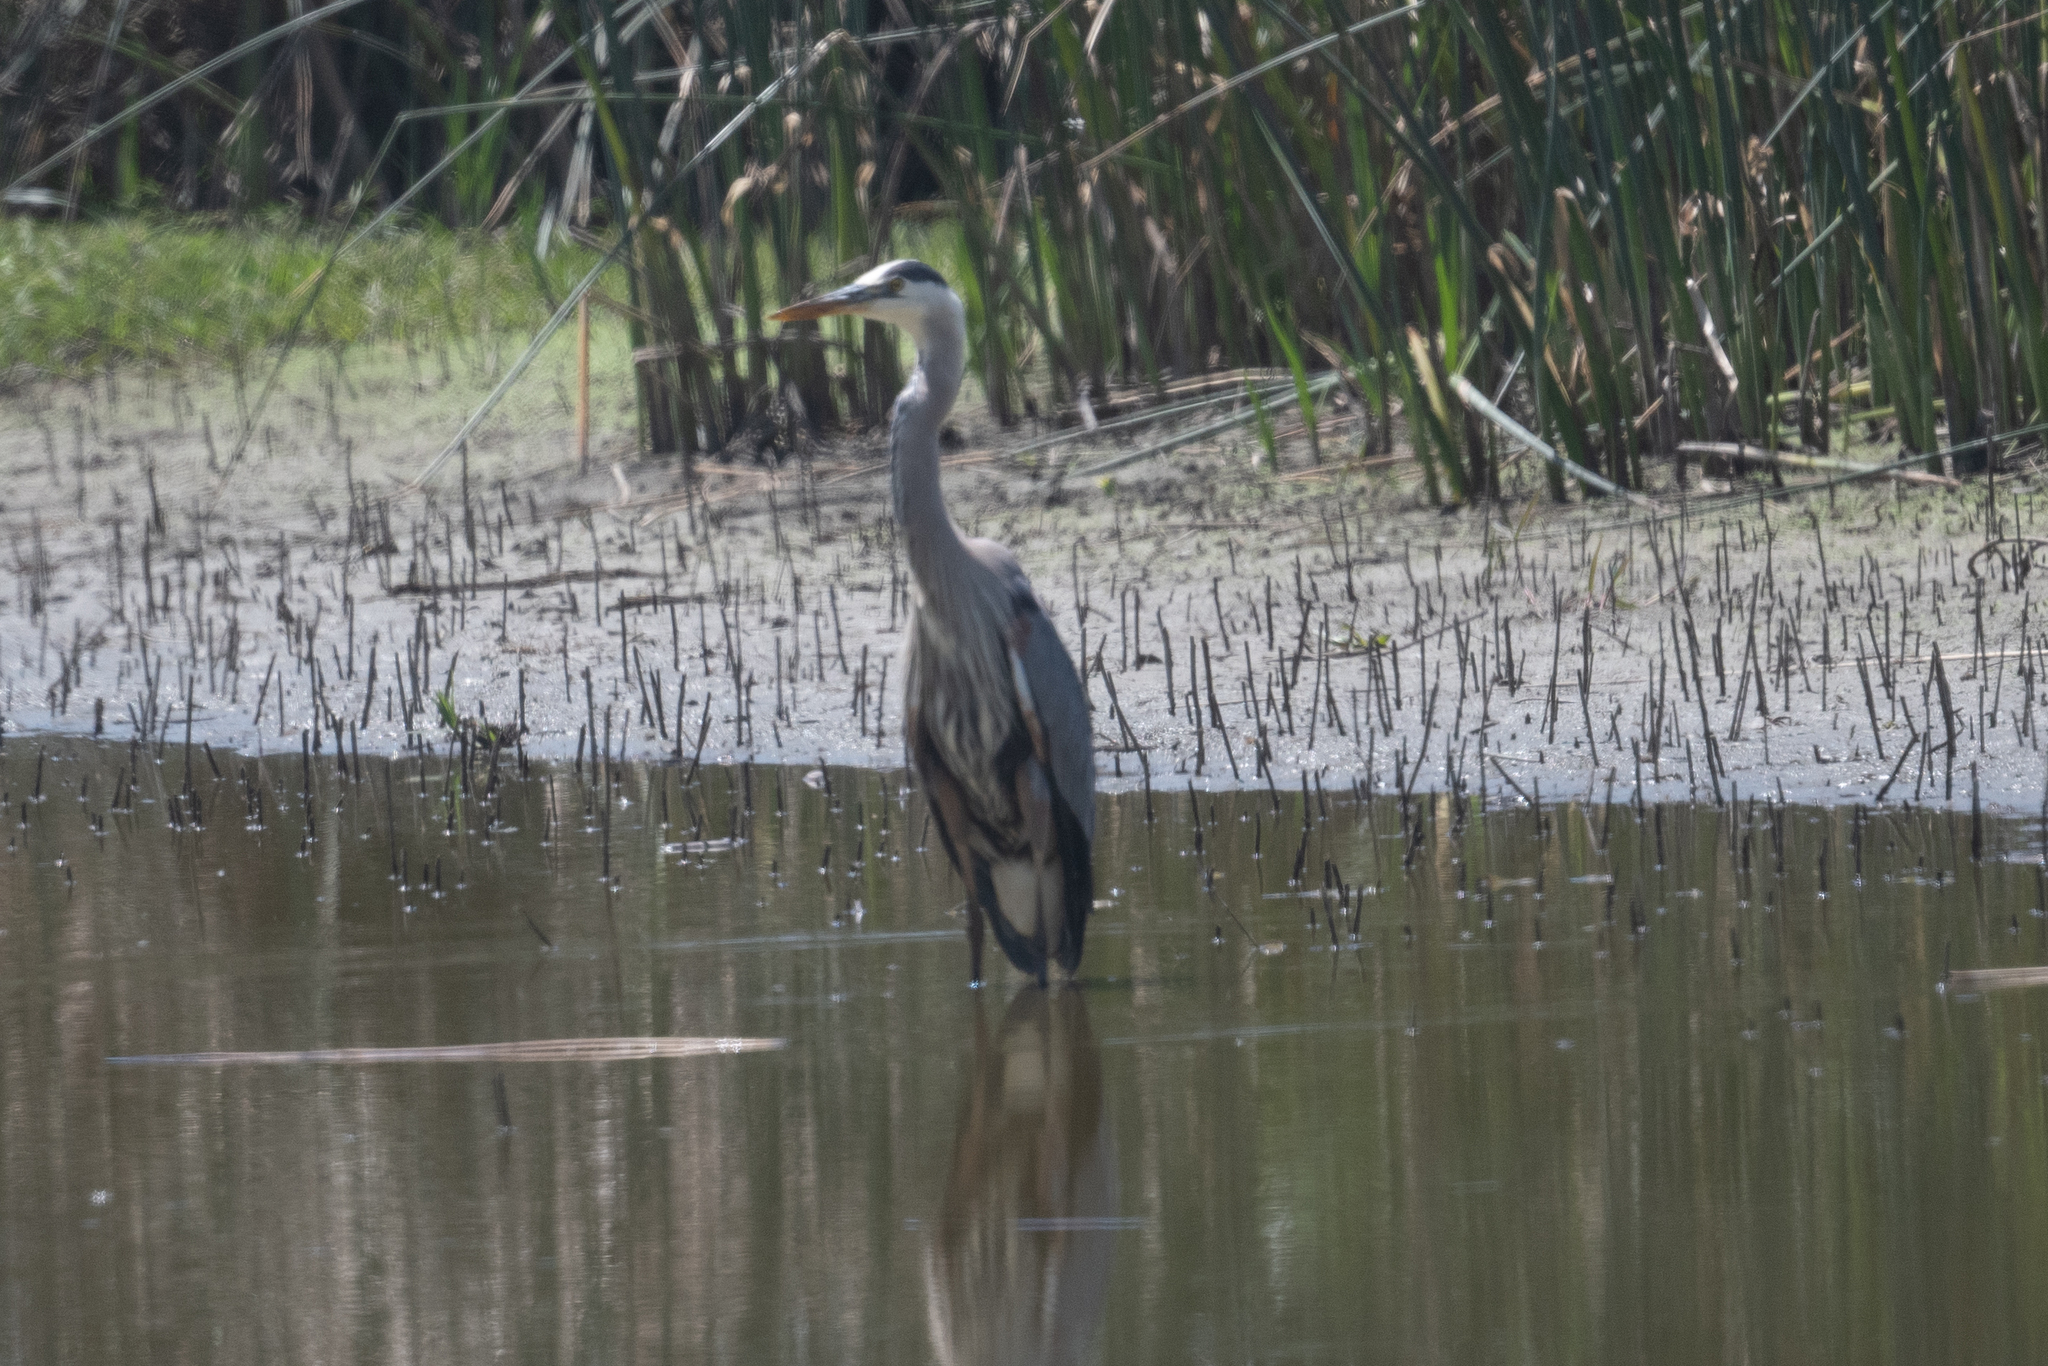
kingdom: Animalia
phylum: Chordata
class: Aves
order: Pelecaniformes
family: Ardeidae
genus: Ardea
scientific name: Ardea herodias
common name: Great blue heron
